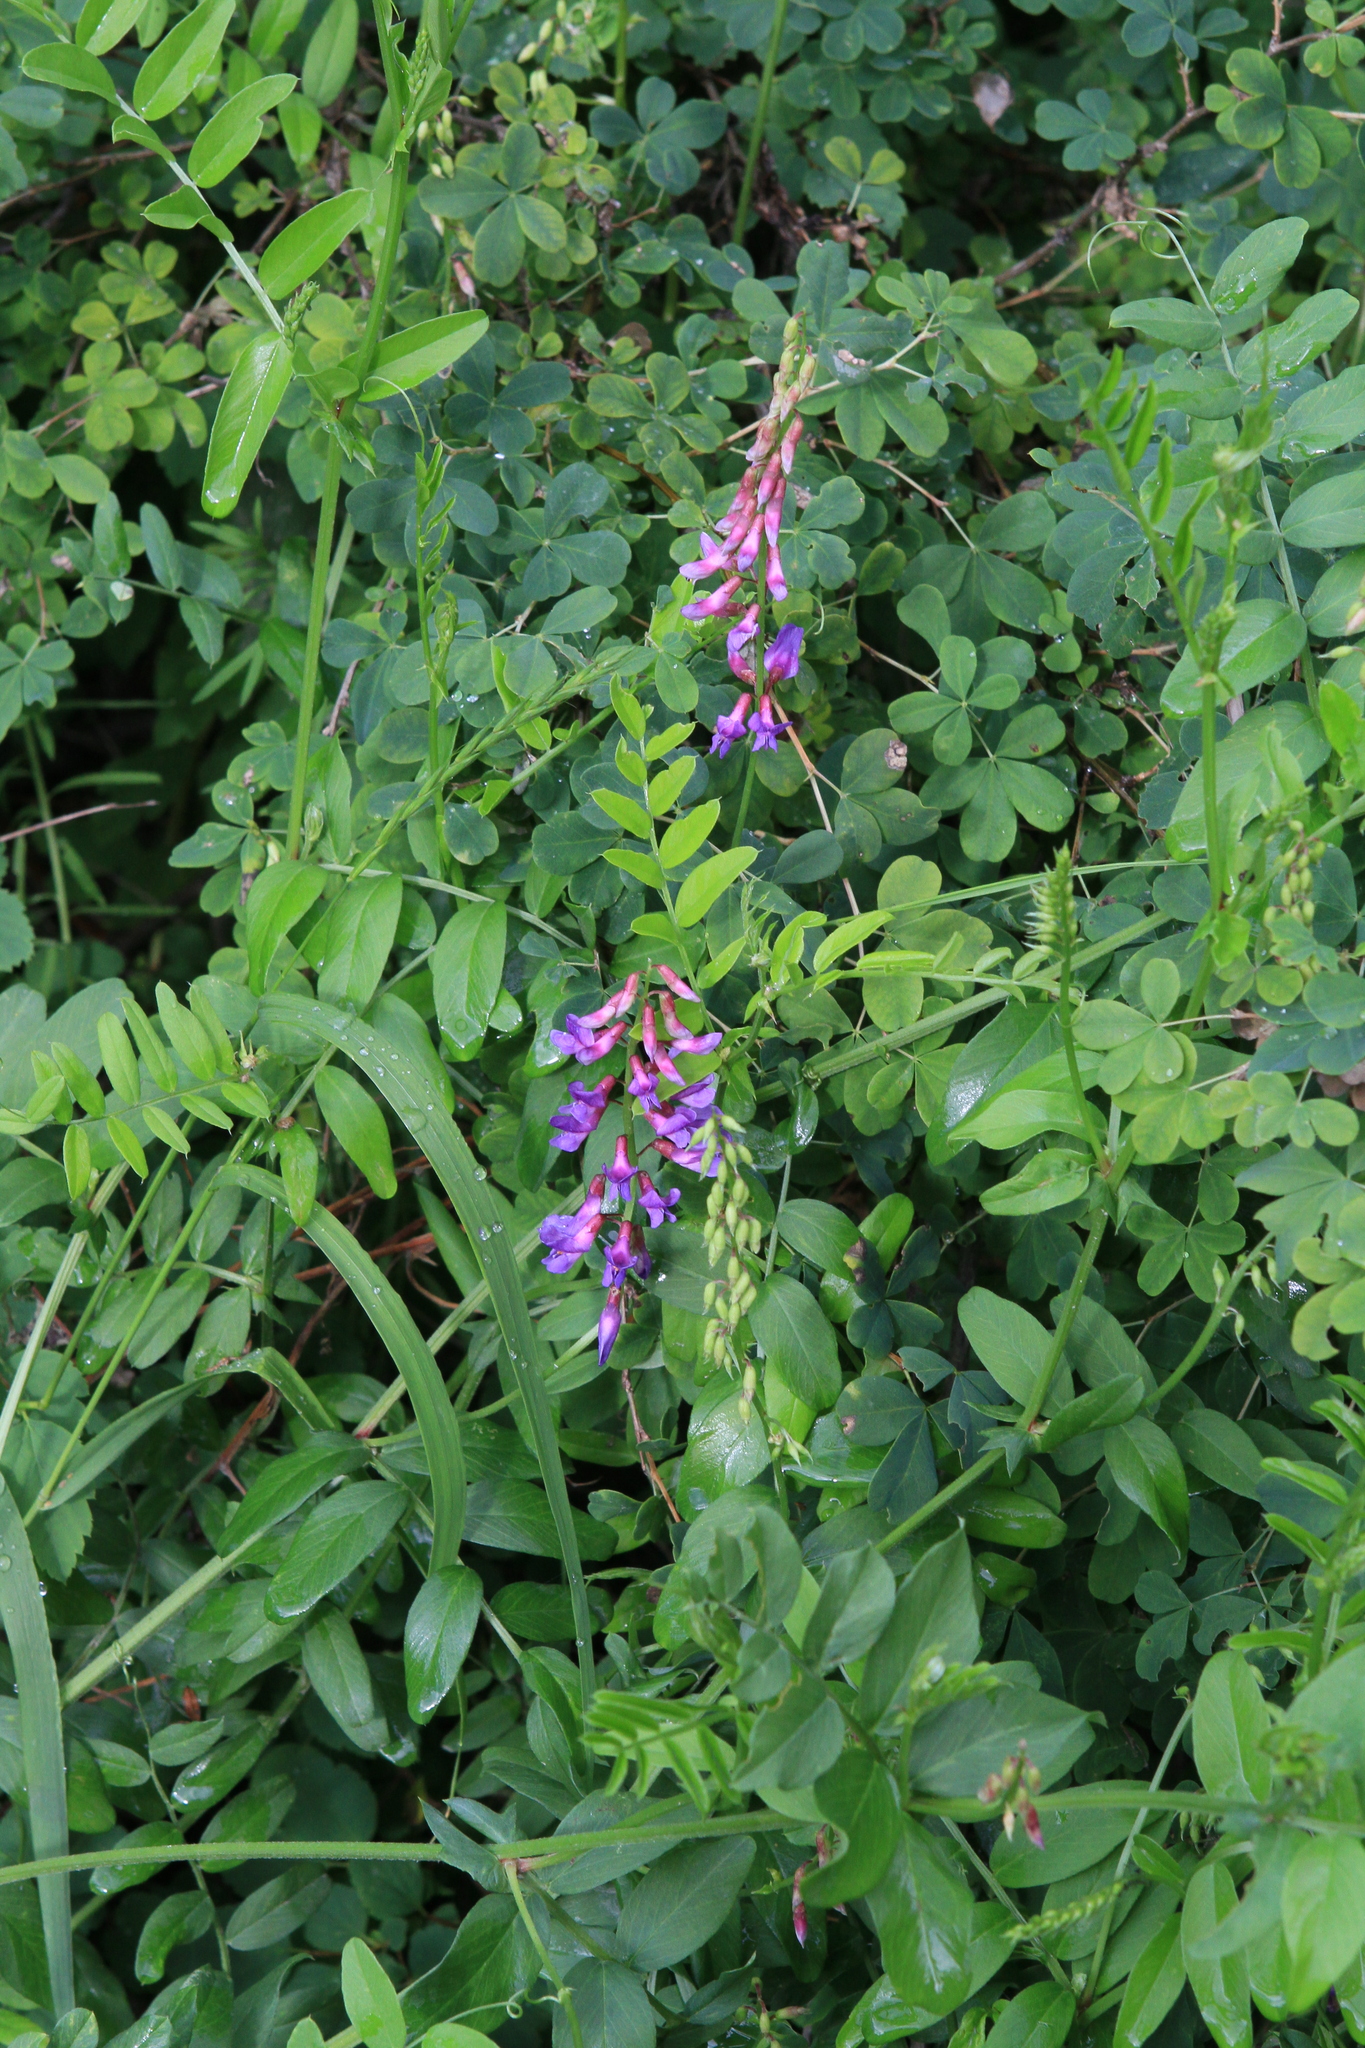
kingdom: Plantae
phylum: Tracheophyta
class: Magnoliopsida
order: Fabales
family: Fabaceae
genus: Vicia
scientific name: Vicia amoena
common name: Cheder ebs
